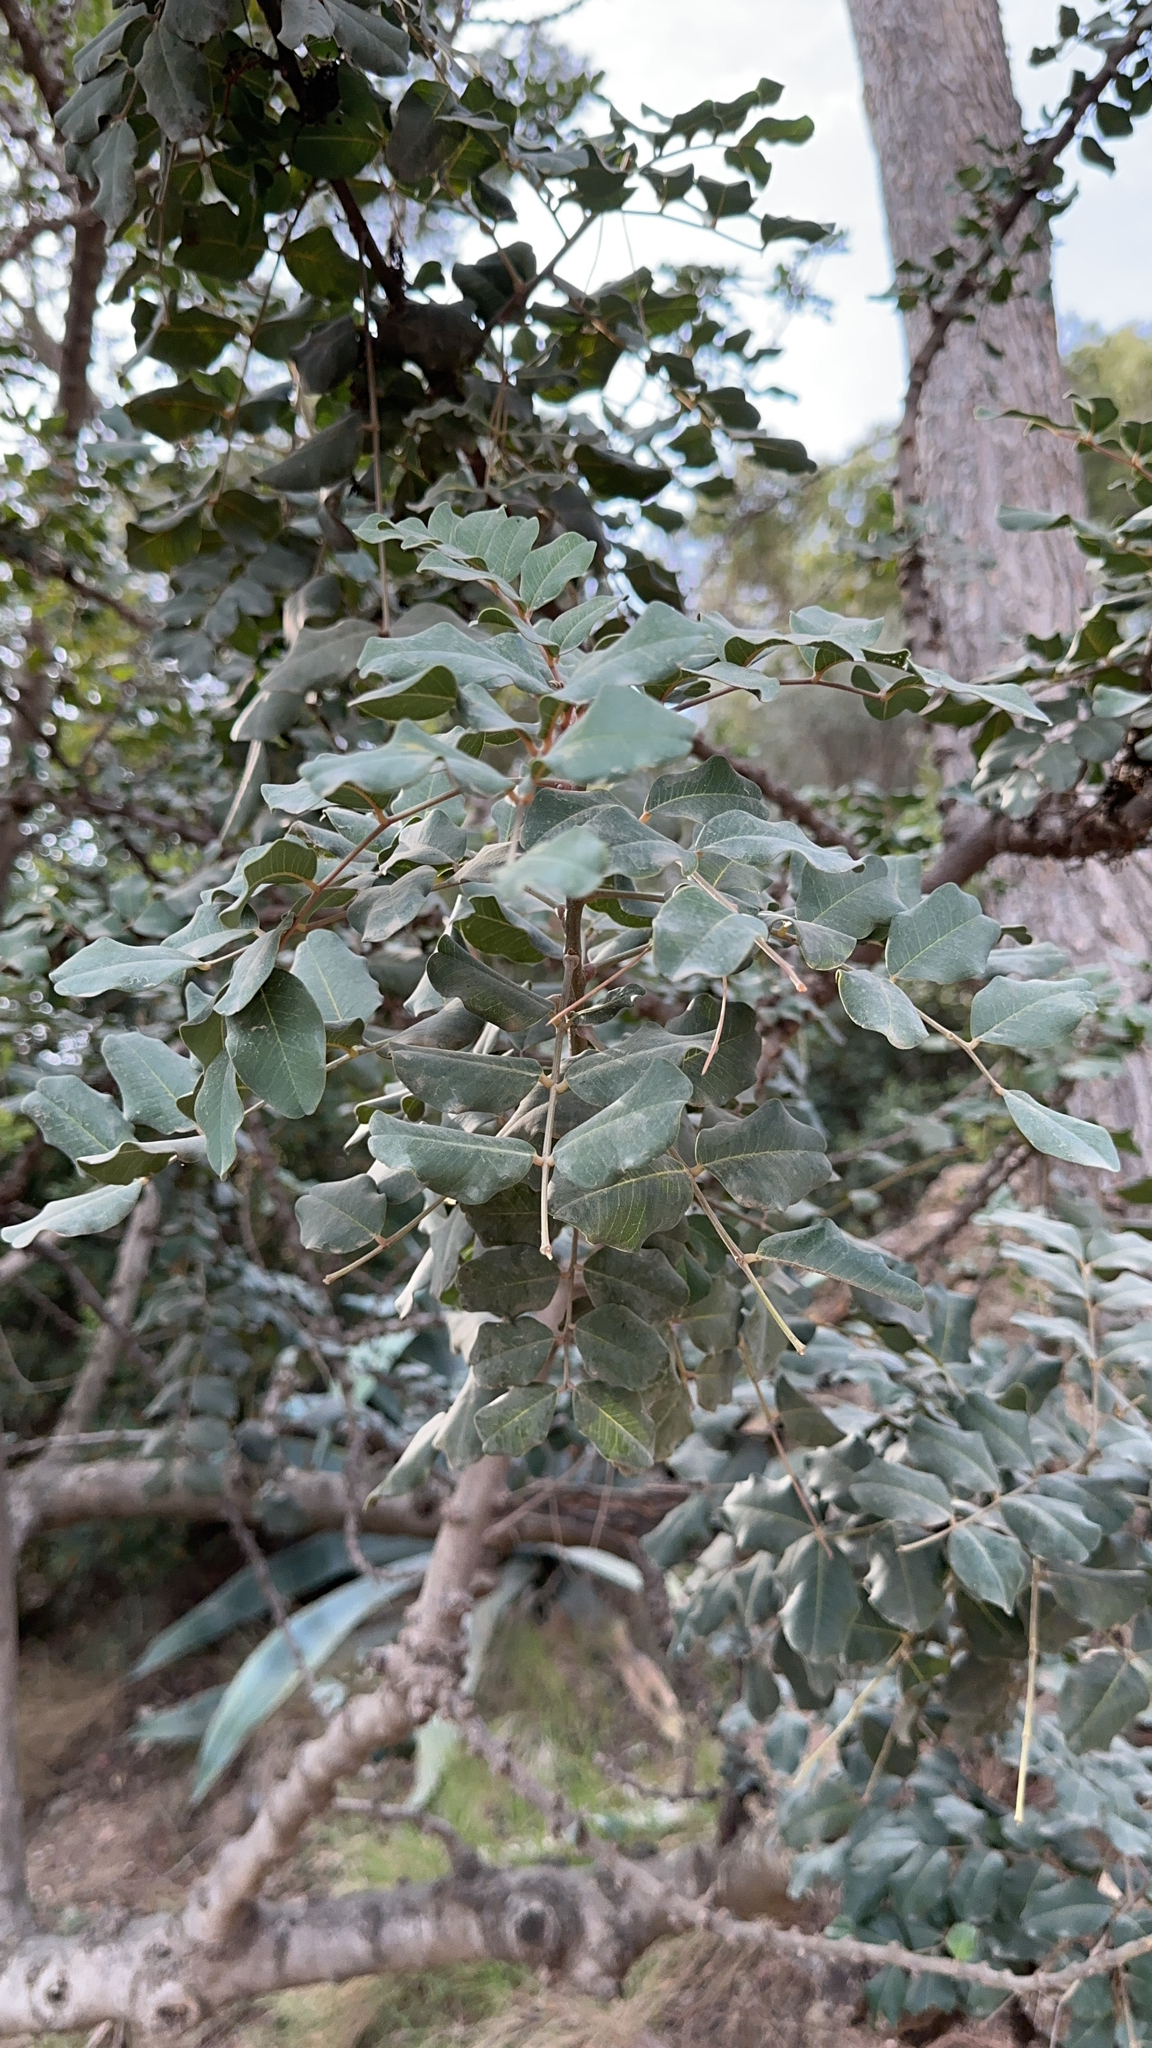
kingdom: Plantae
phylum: Tracheophyta
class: Magnoliopsida
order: Fabales
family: Fabaceae
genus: Ceratonia
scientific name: Ceratonia siliqua
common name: Carob
